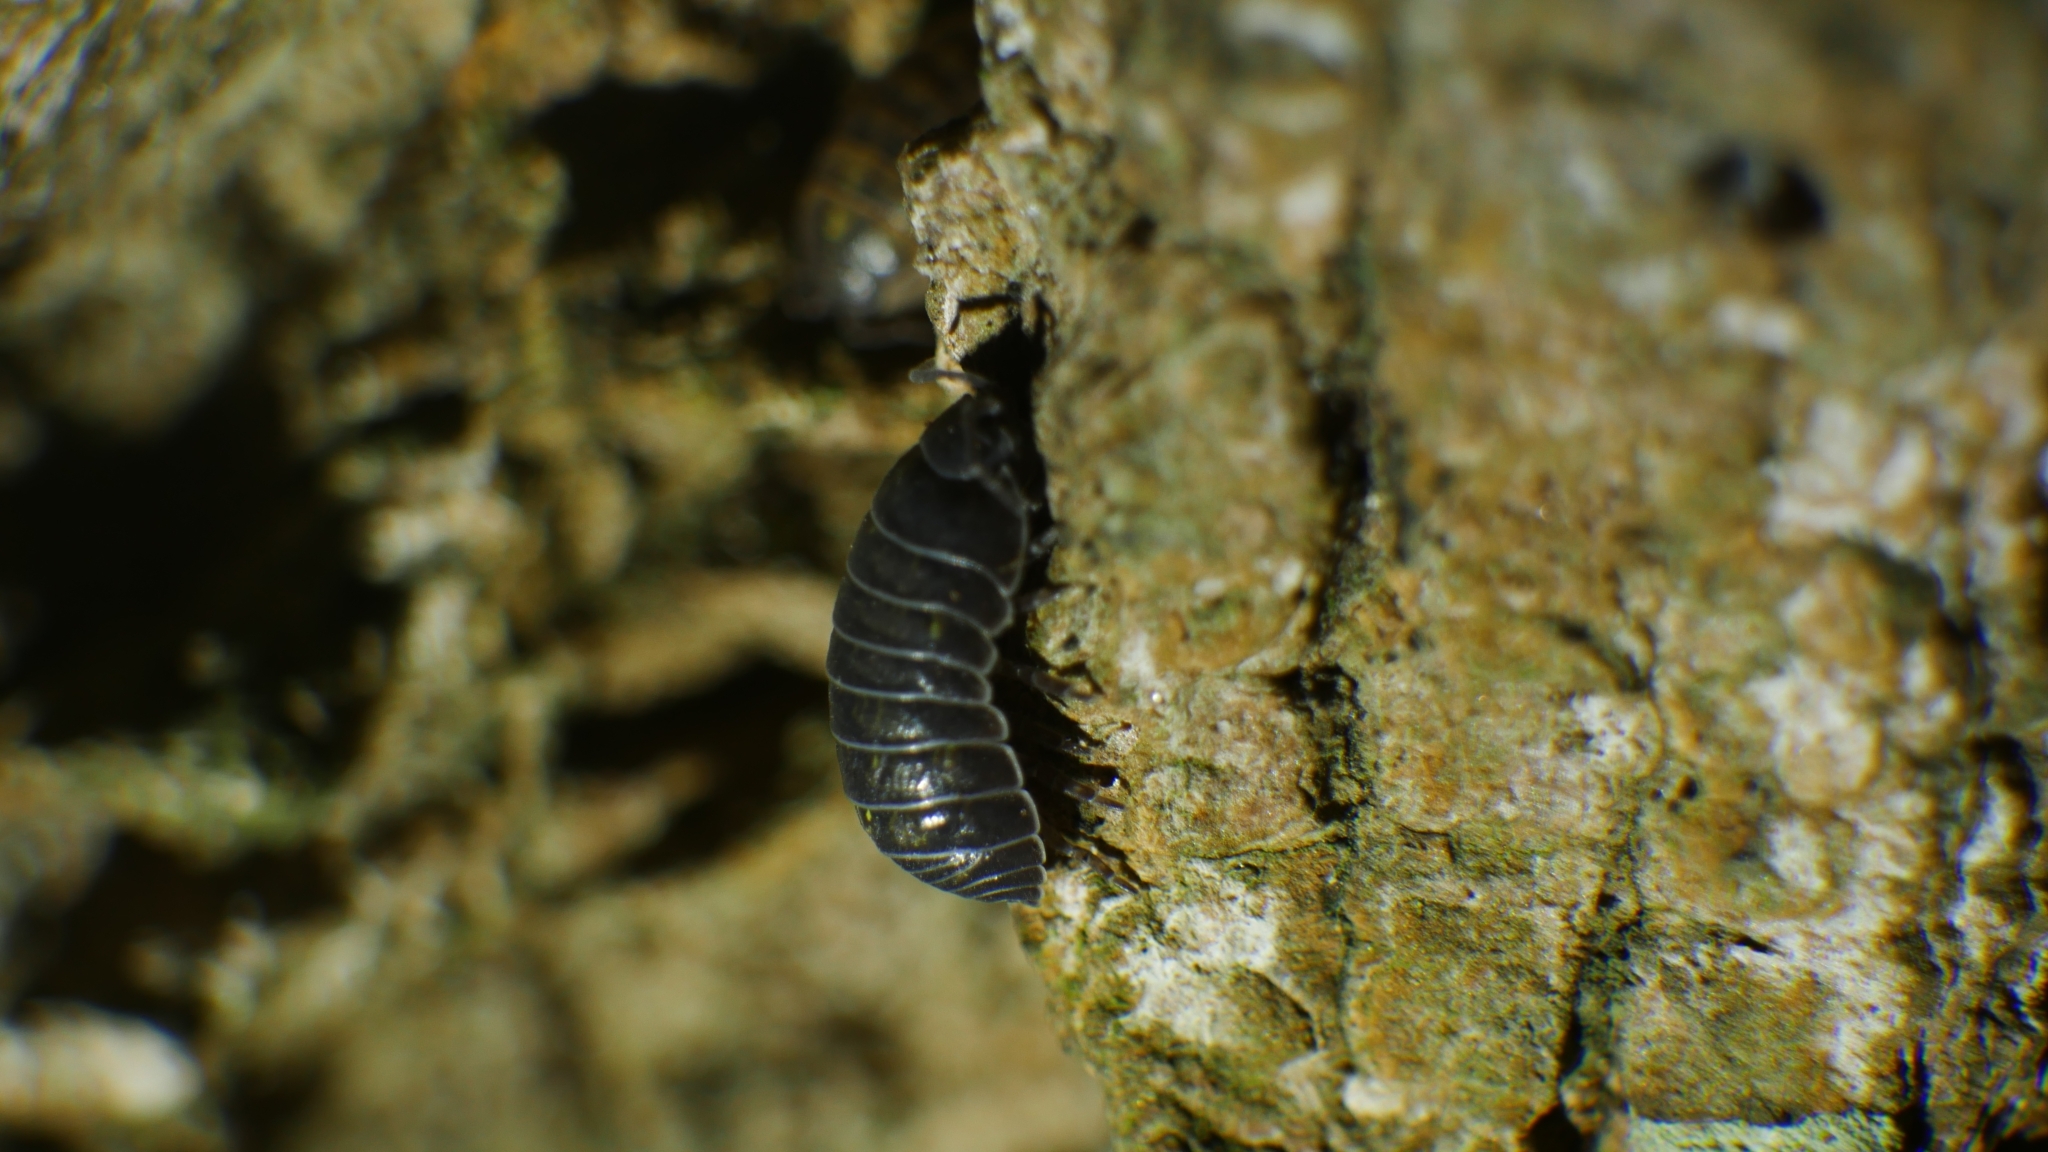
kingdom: Animalia
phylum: Arthropoda
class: Malacostraca
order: Isopoda
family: Armadillidiidae
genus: Armadillidium
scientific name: Armadillidium vulgare
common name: Common pill woodlouse
